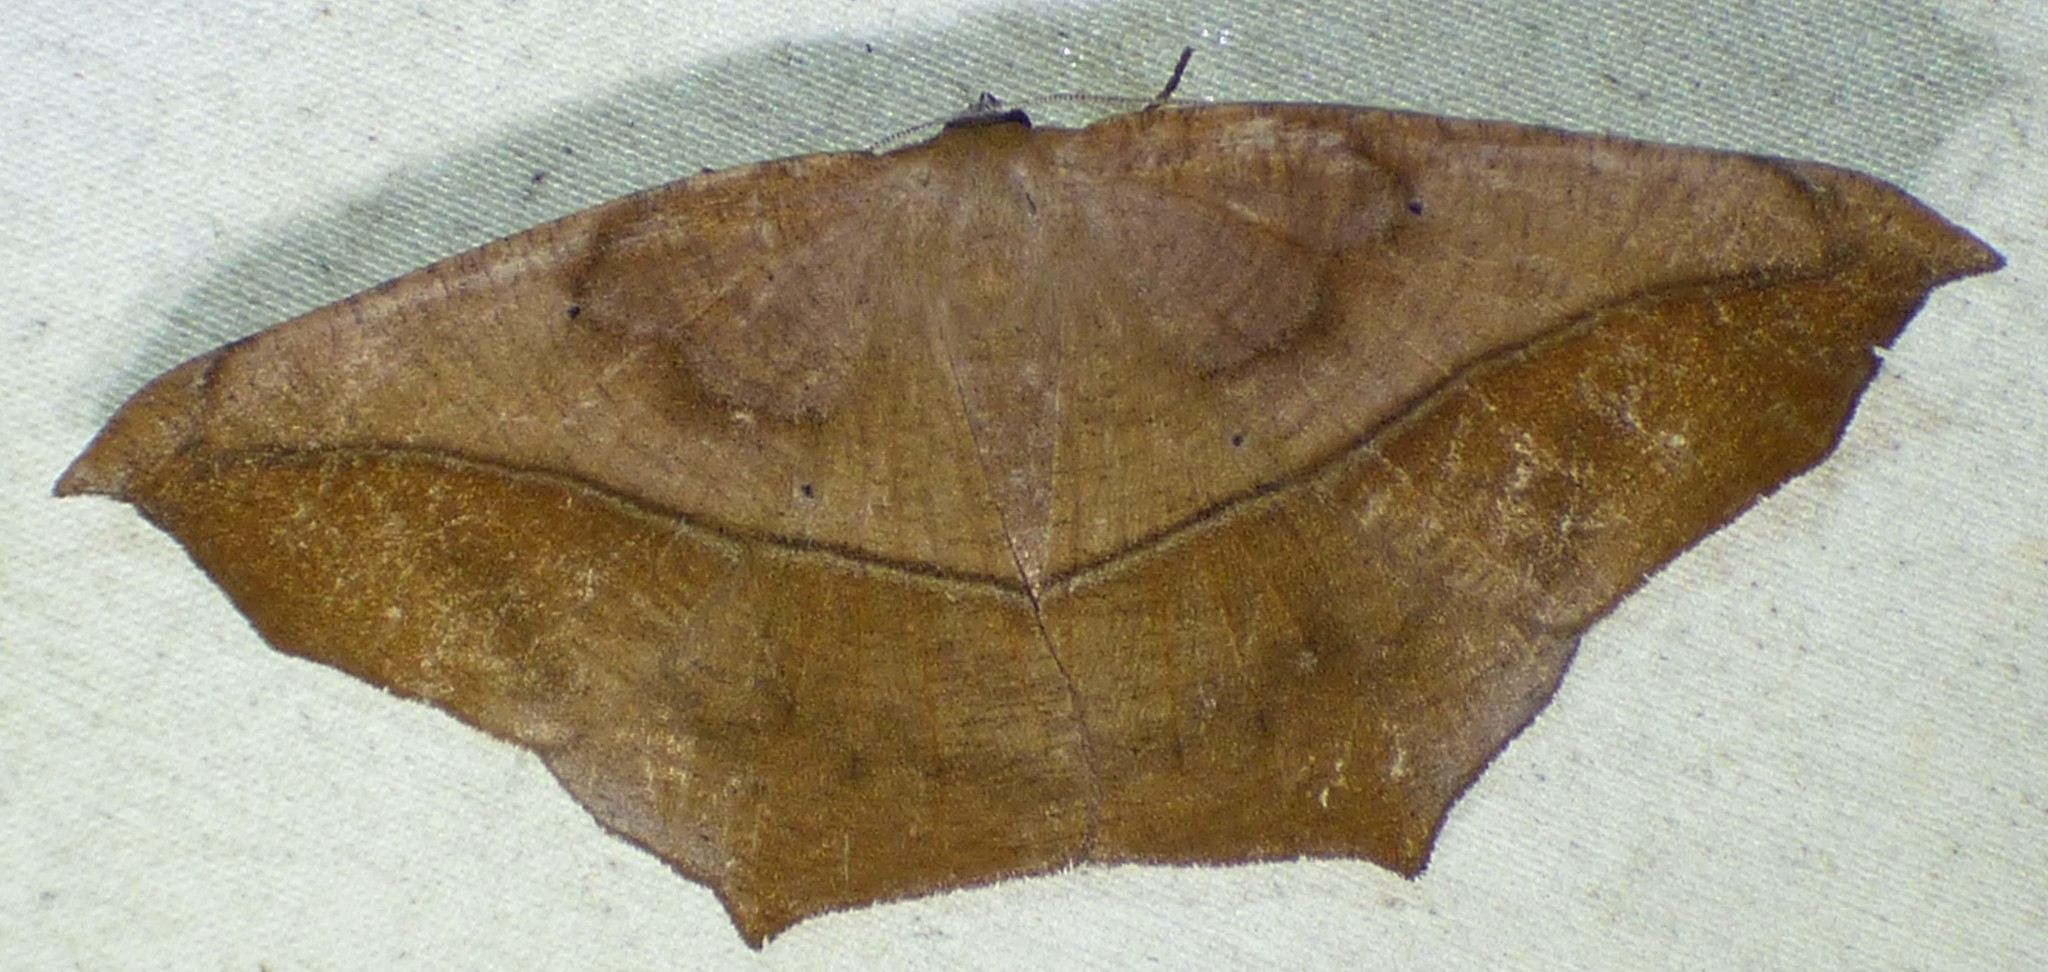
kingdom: Animalia
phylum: Arthropoda
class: Insecta
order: Lepidoptera
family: Geometridae
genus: Prochoerodes
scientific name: Prochoerodes lineola
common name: Large maple spanworm
